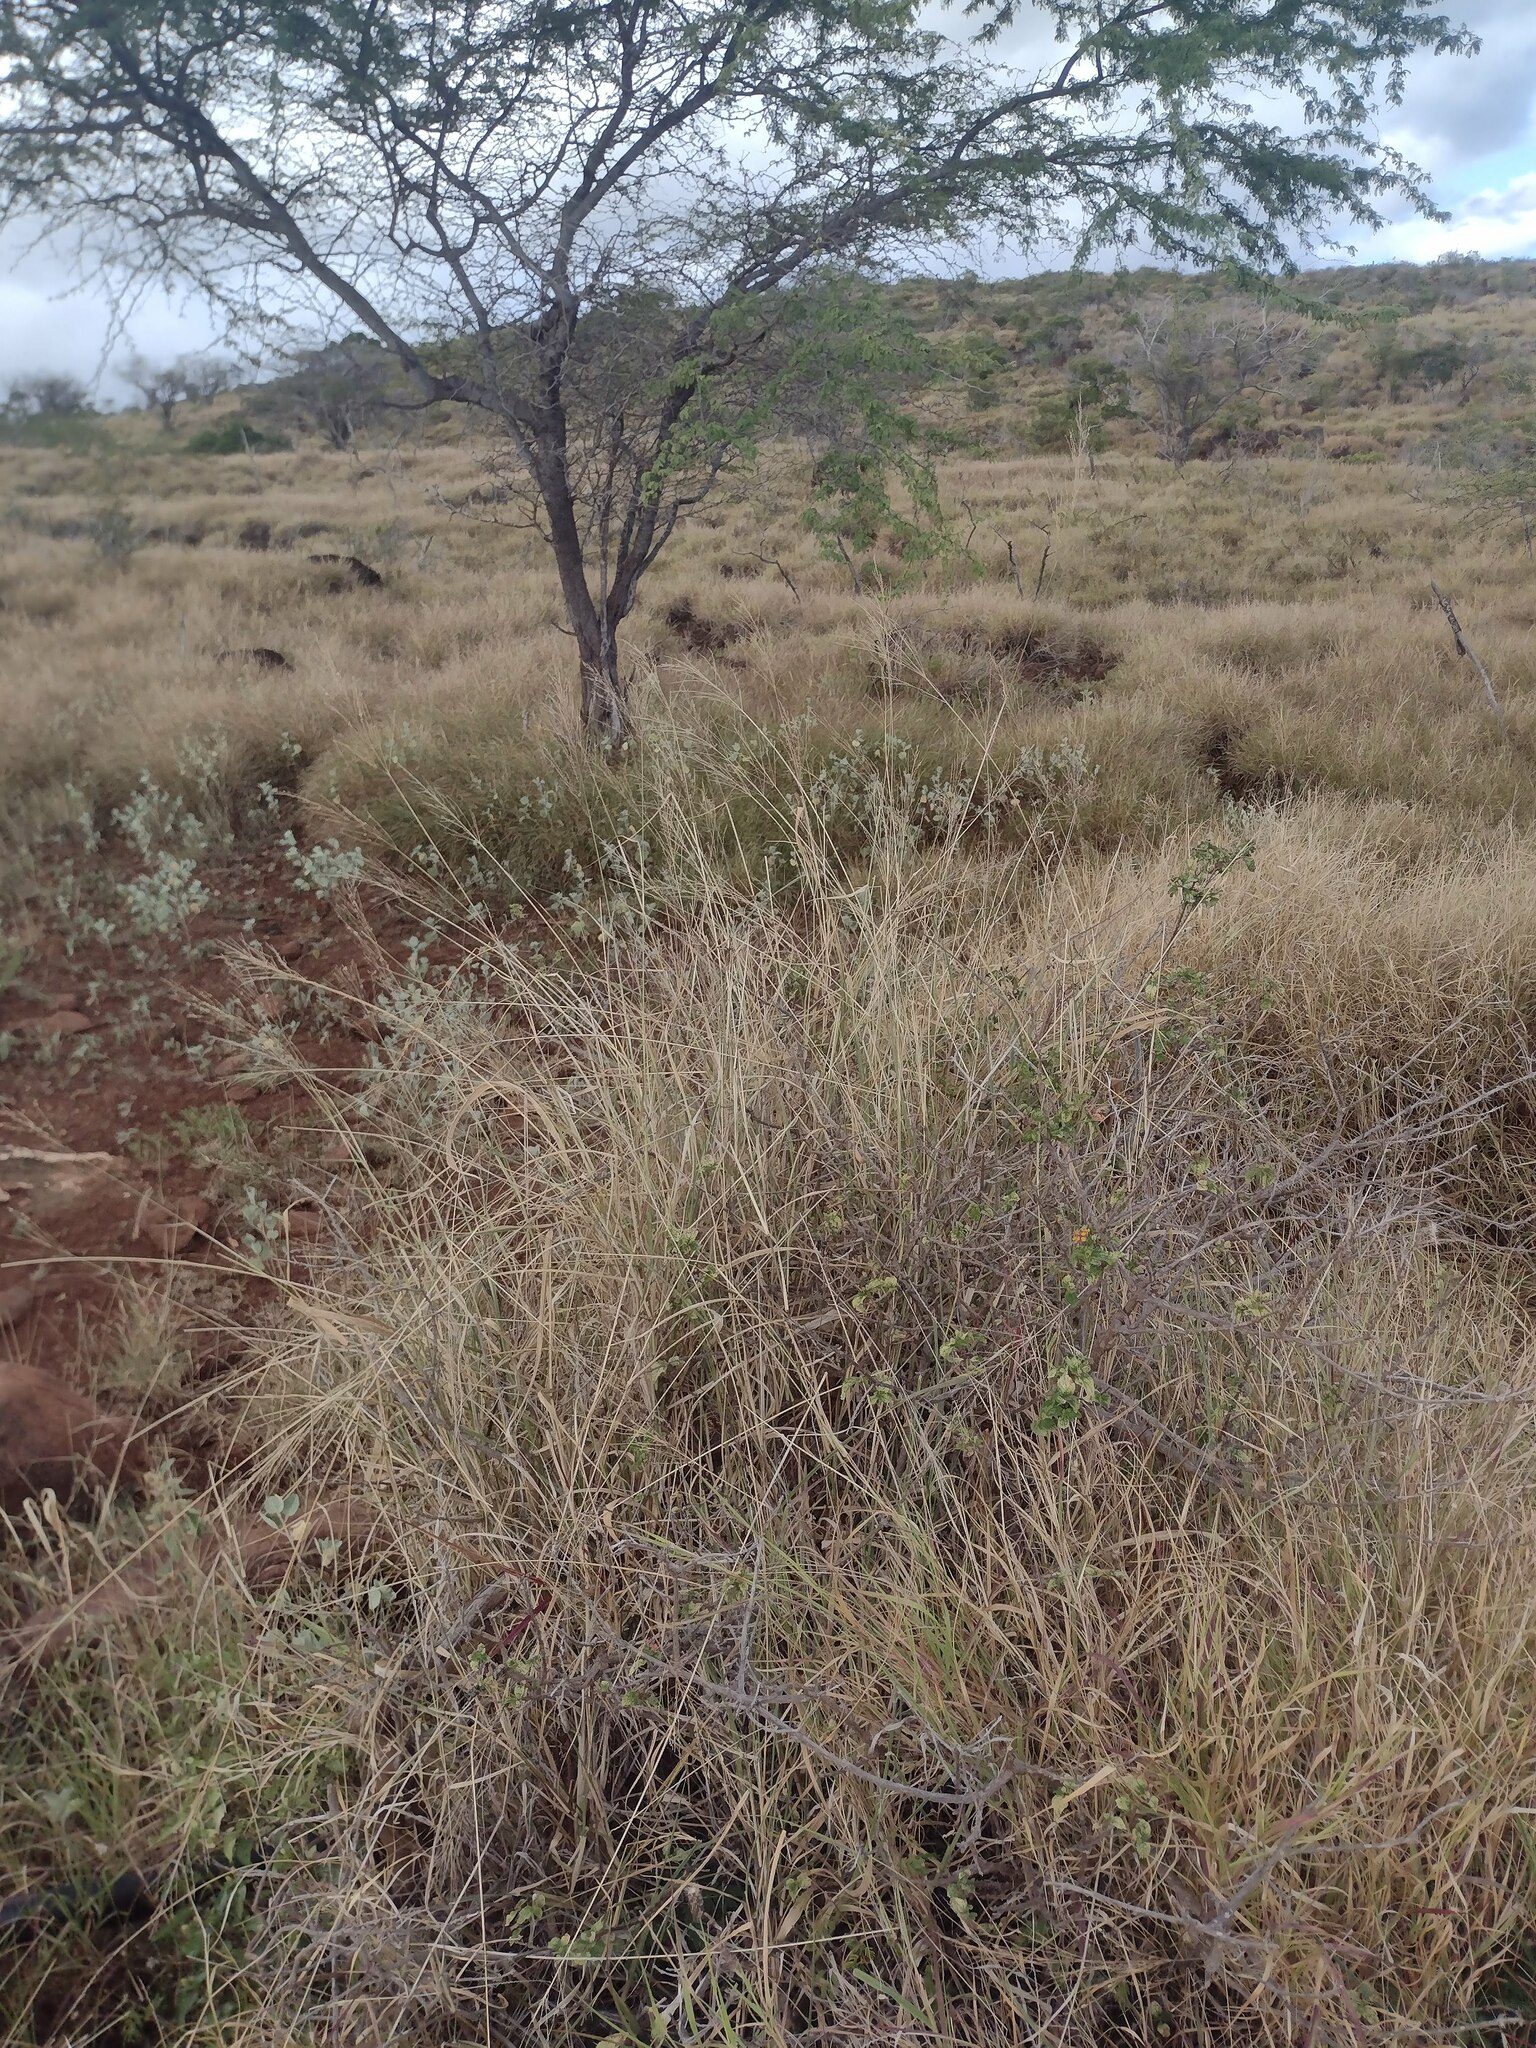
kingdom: Plantae
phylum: Tracheophyta
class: Liliopsida
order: Poales
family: Poaceae
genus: Megathyrsus
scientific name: Megathyrsus maximus
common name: Guineagrass
